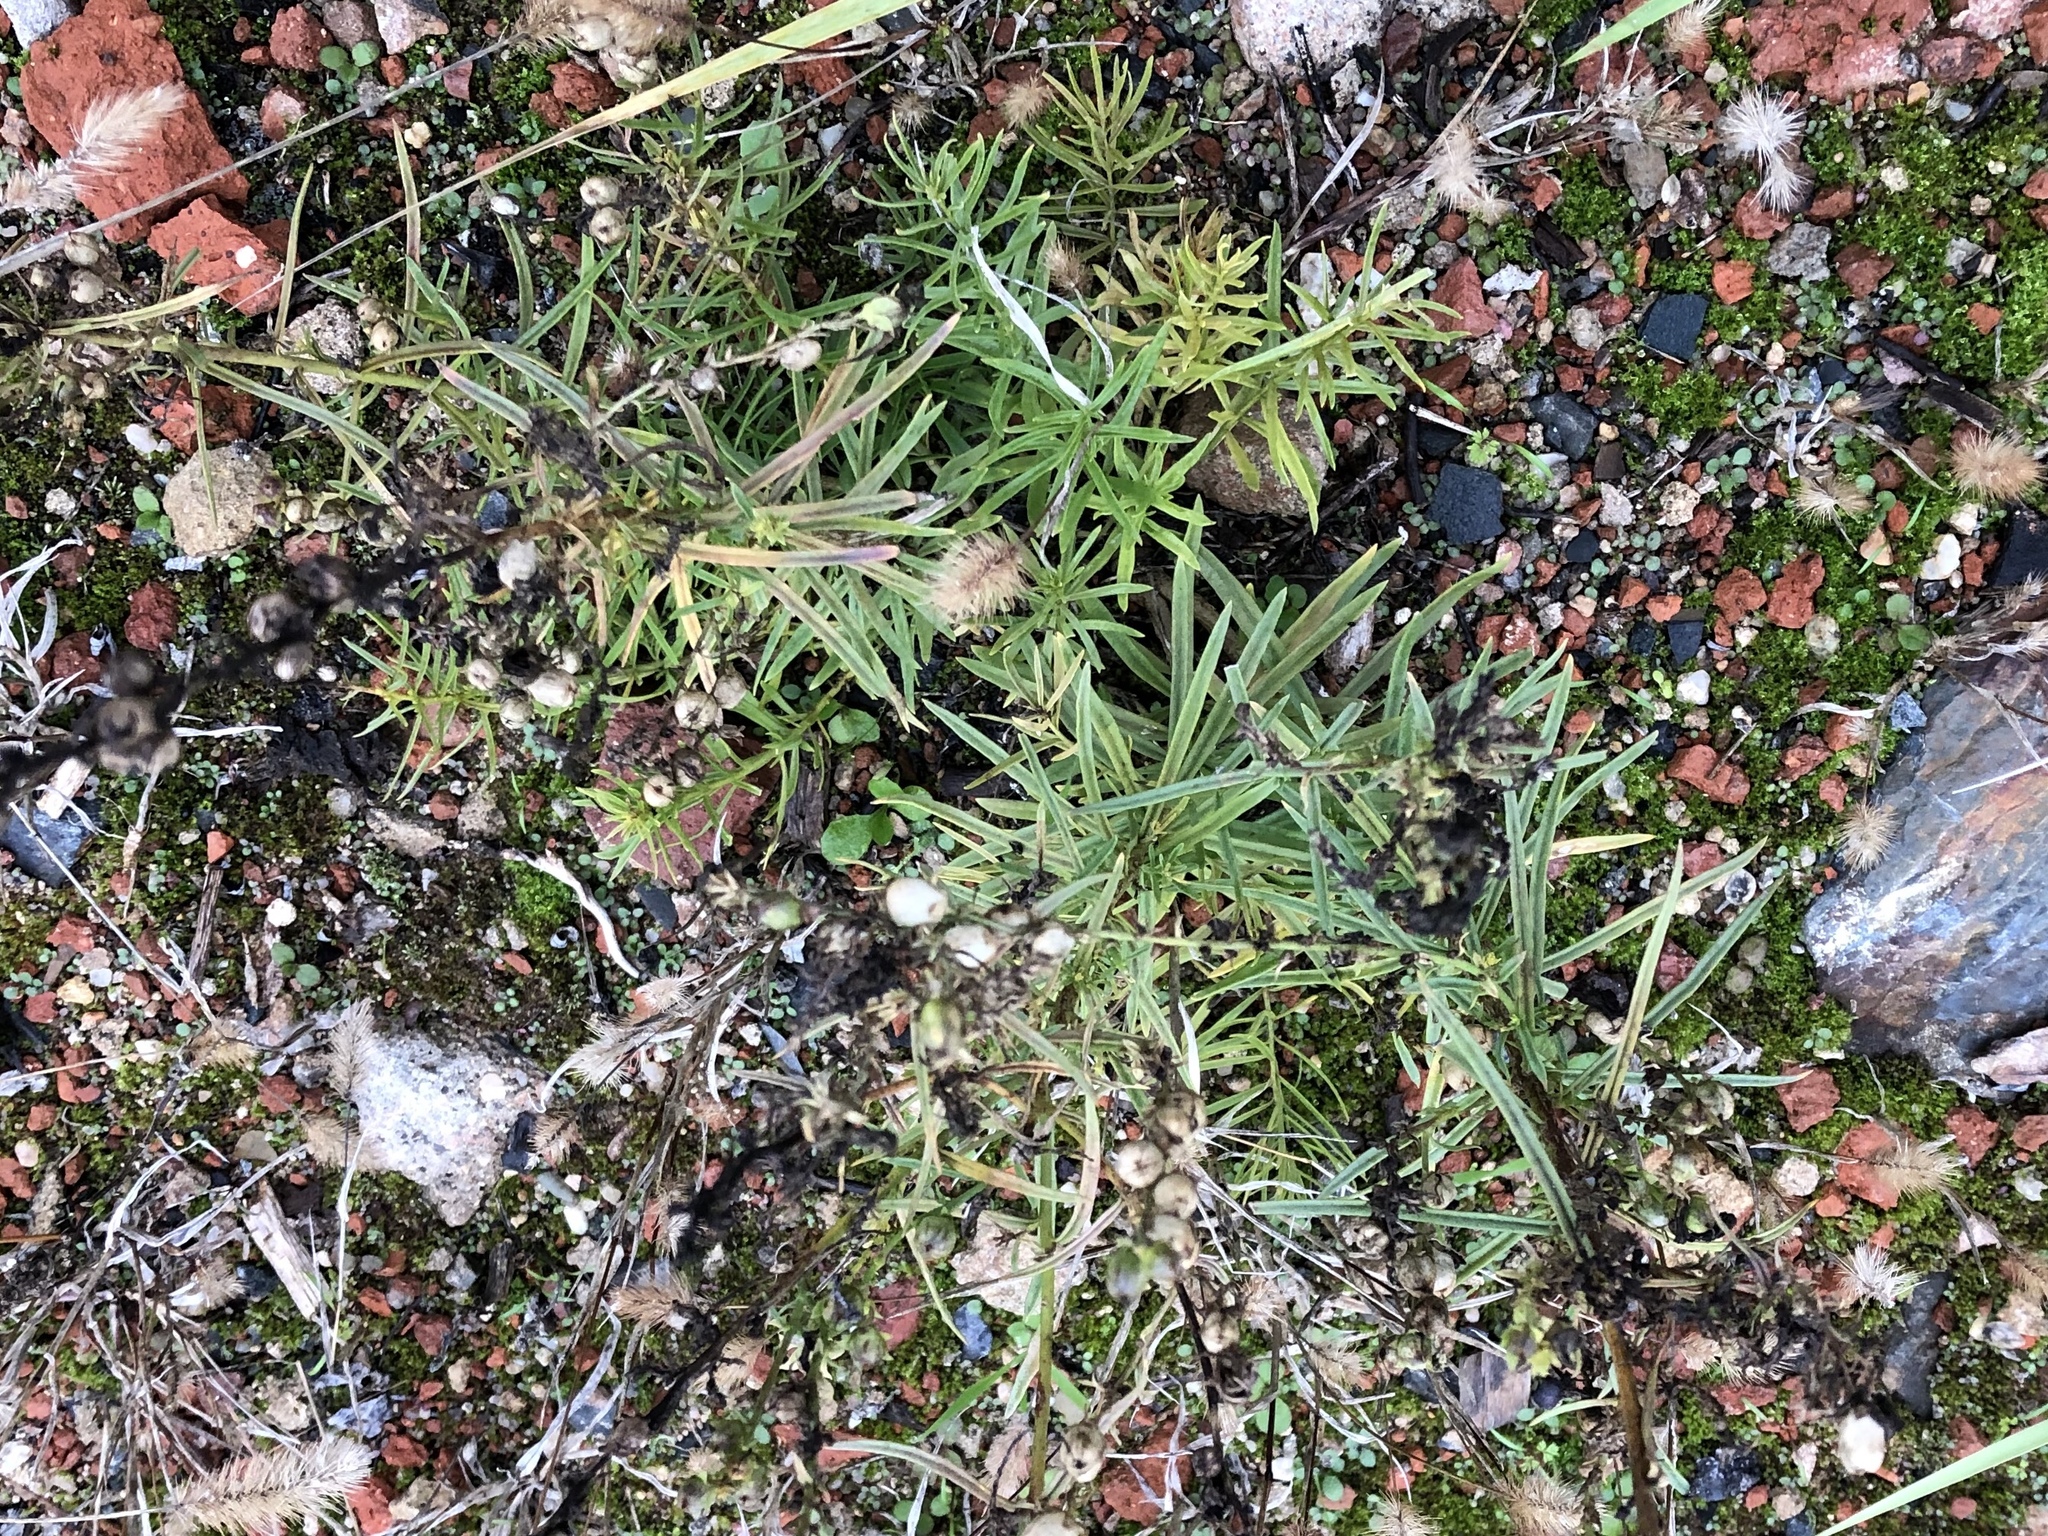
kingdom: Plantae
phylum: Tracheophyta
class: Magnoliopsida
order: Asterales
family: Asteraceae
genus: Senecio
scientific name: Senecio inaequidens
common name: Narrow-leaved ragwort
